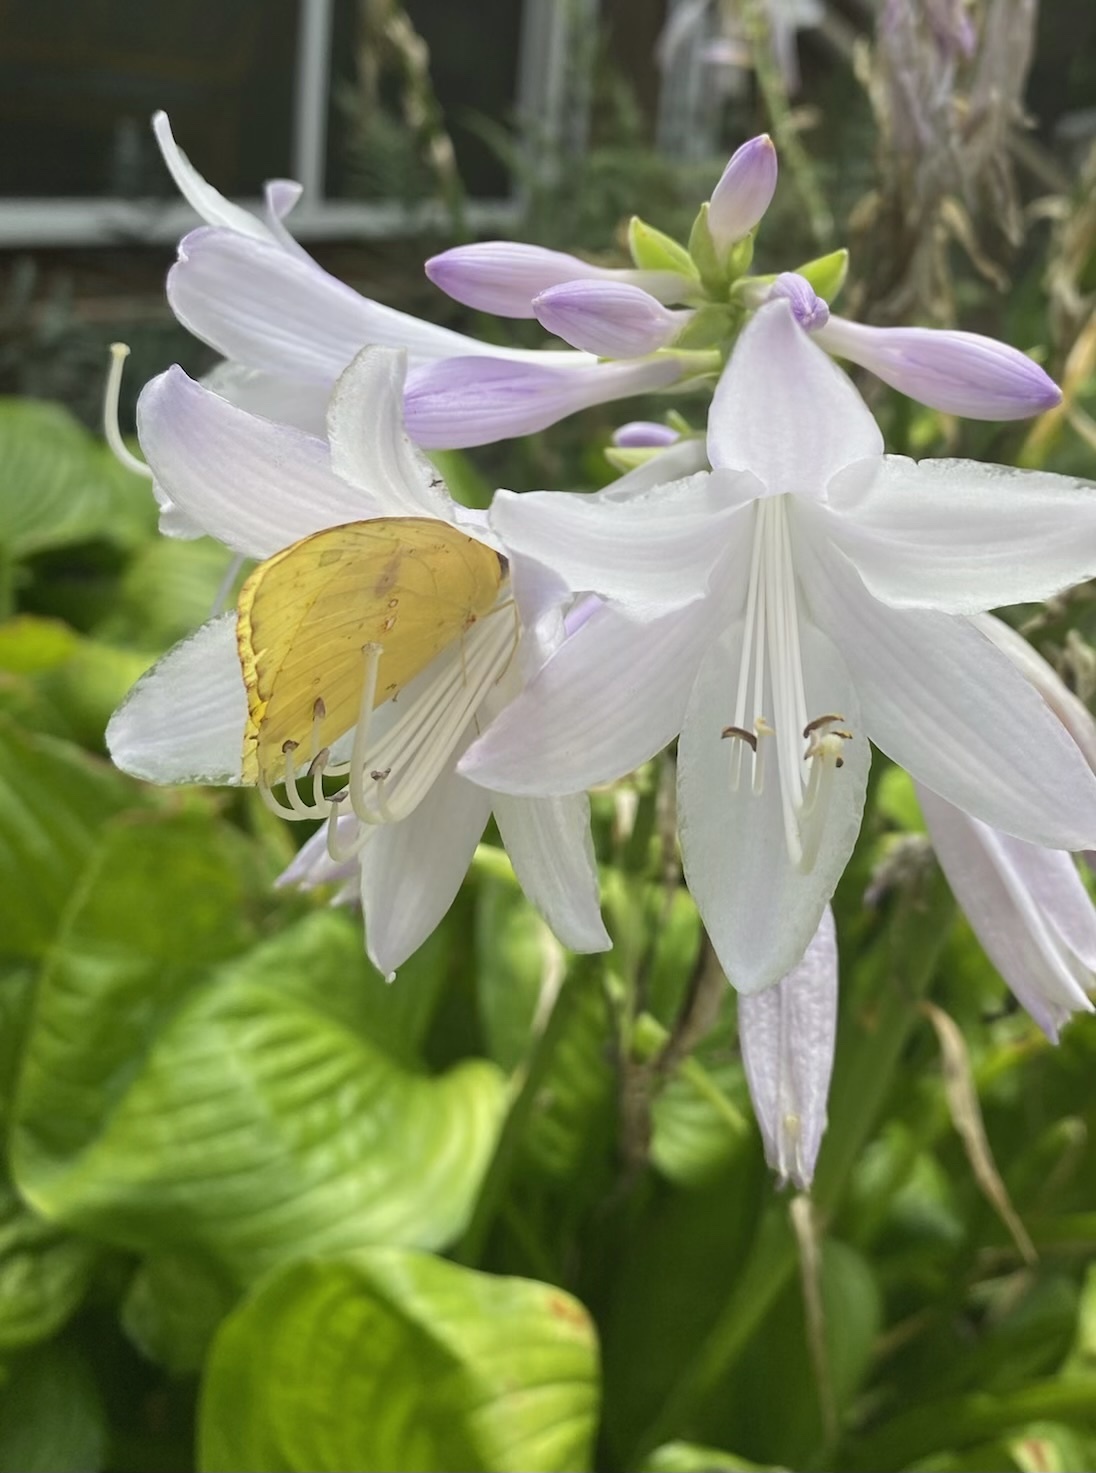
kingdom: Animalia
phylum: Arthropoda
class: Insecta
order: Lepidoptera
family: Pieridae
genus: Phoebis
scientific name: Phoebis sennae
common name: Cloudless sulphur
